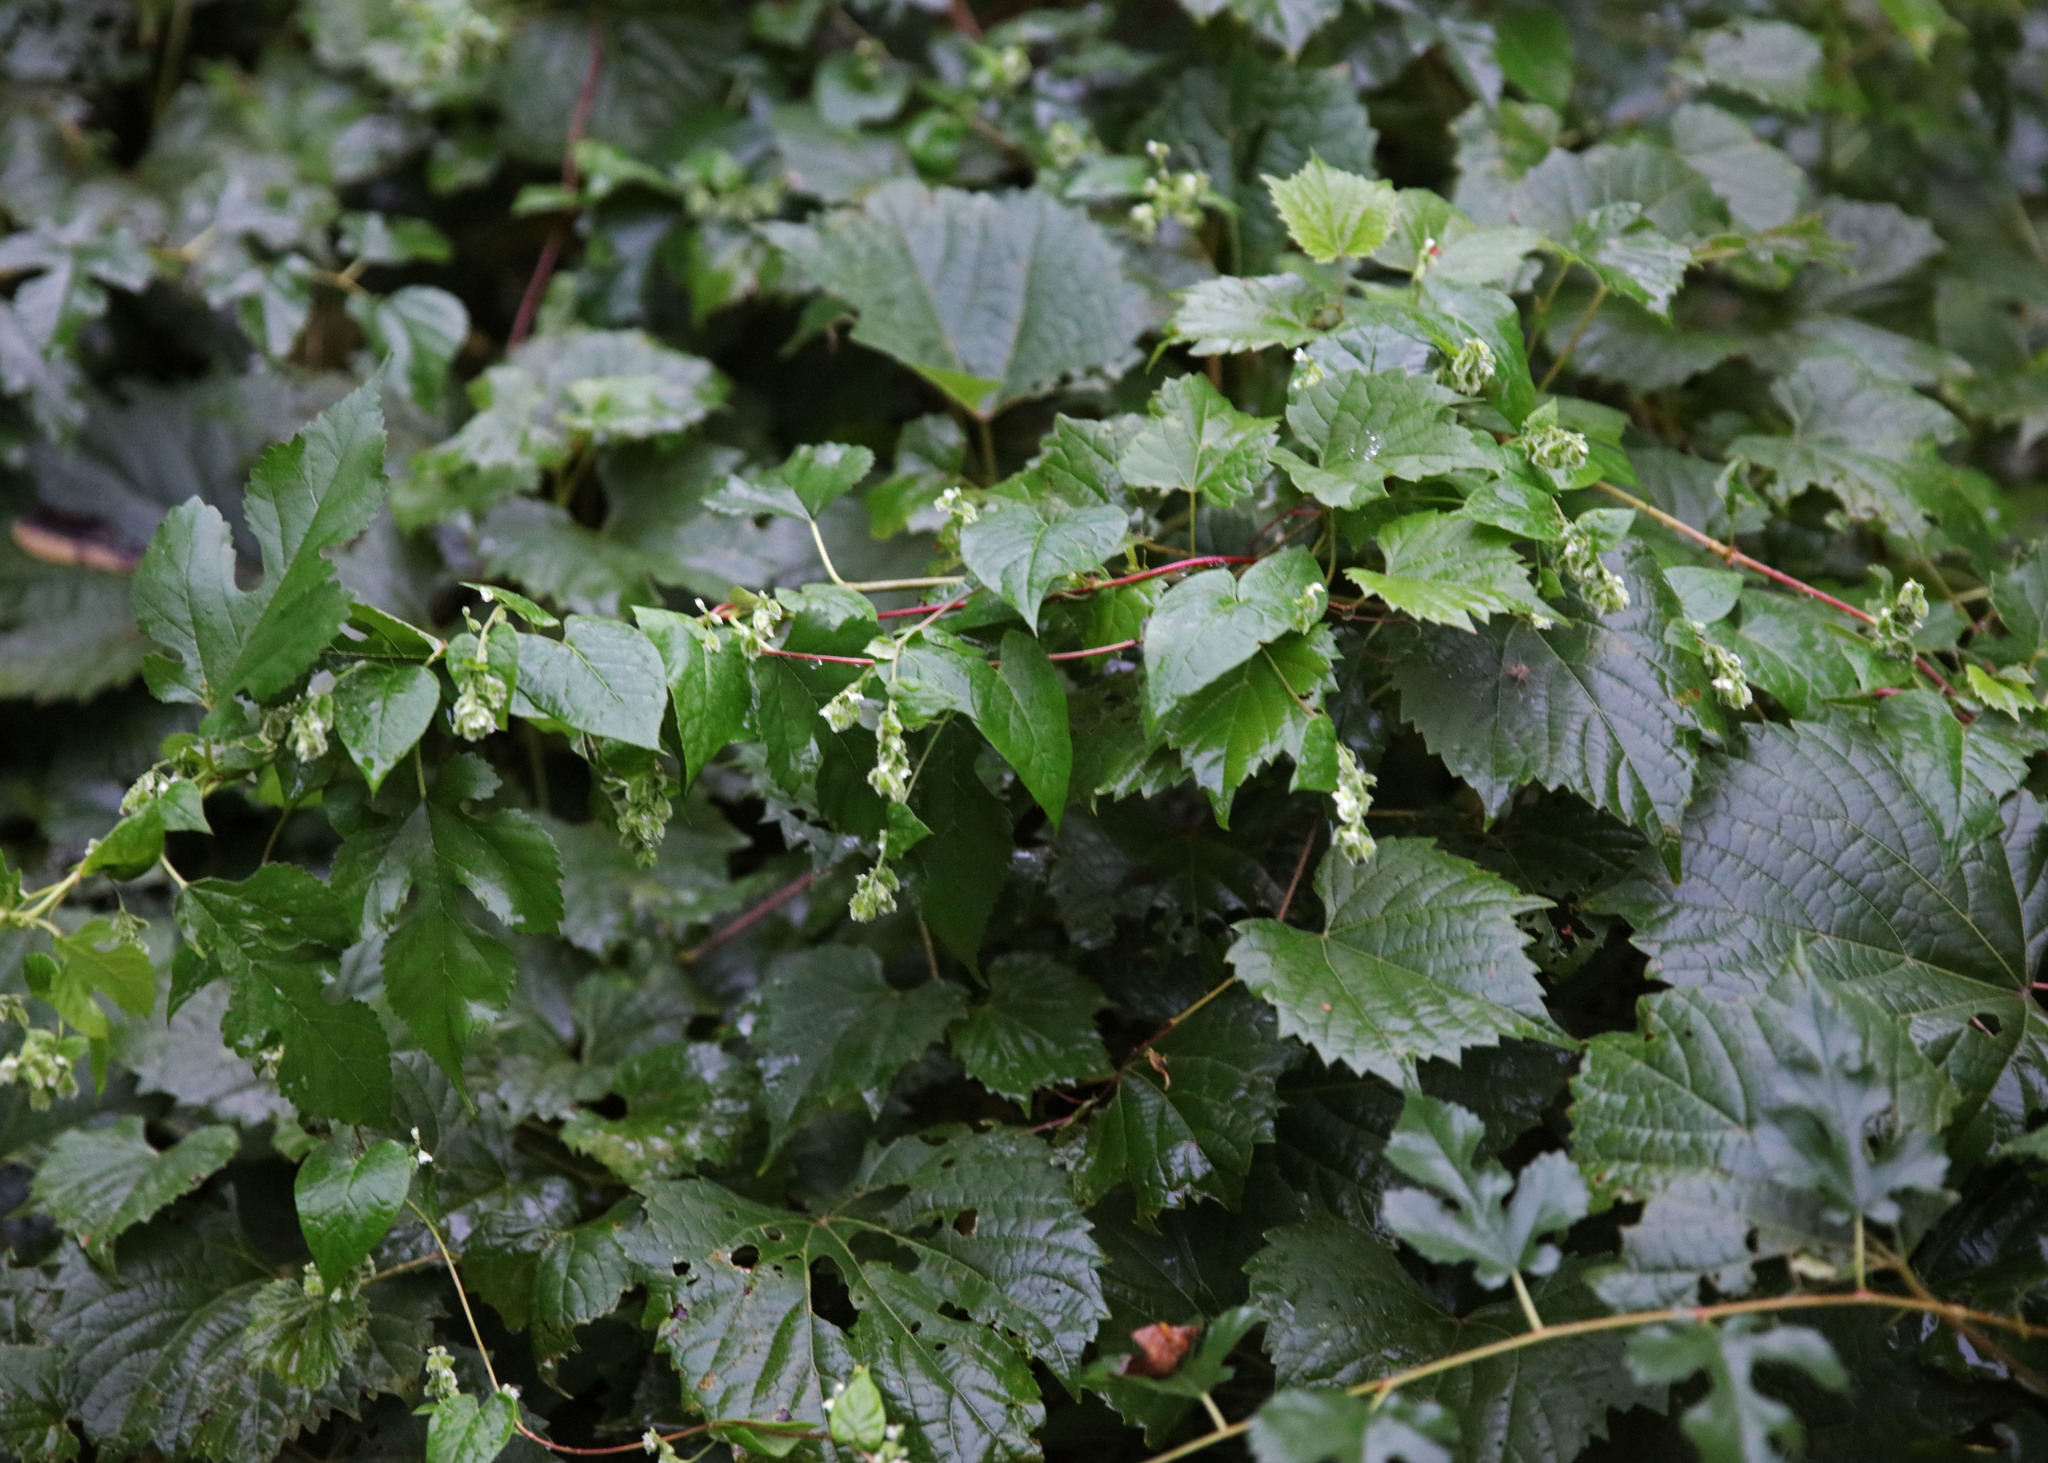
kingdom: Plantae
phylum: Tracheophyta
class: Magnoliopsida
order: Caryophyllales
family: Polygonaceae
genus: Fallopia
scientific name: Fallopia scandens
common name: Climbing false buckwheat
